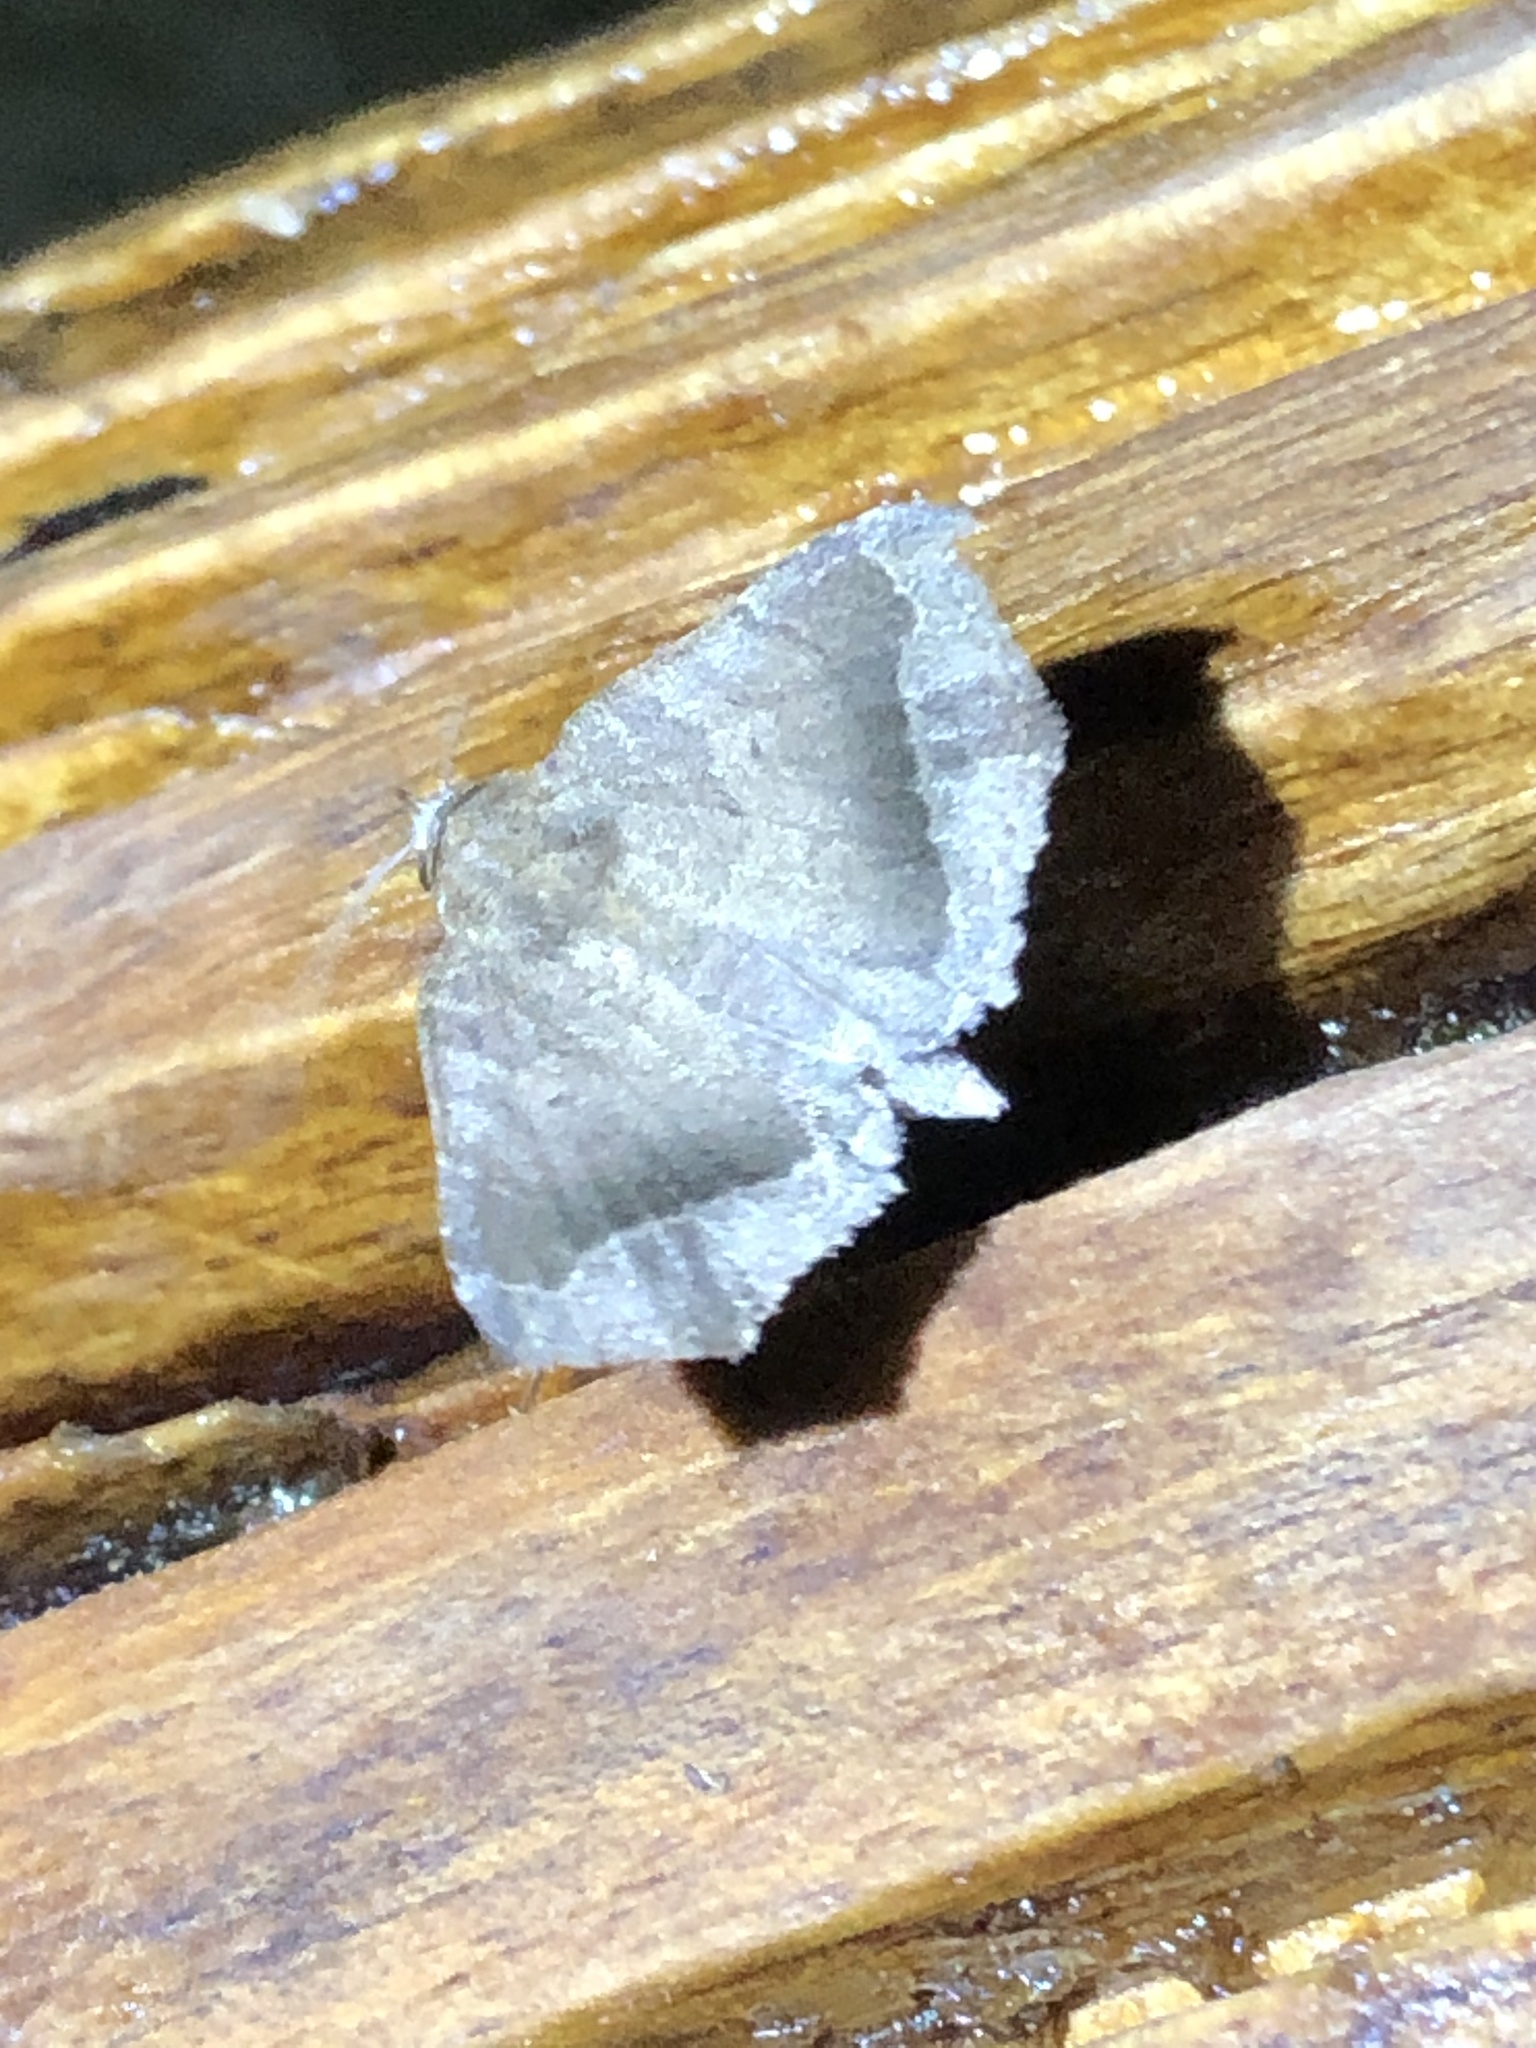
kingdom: Animalia
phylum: Arthropoda
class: Insecta
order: Lepidoptera
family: Erebidae
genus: Bendisodes
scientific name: Bendisodes aeolia
